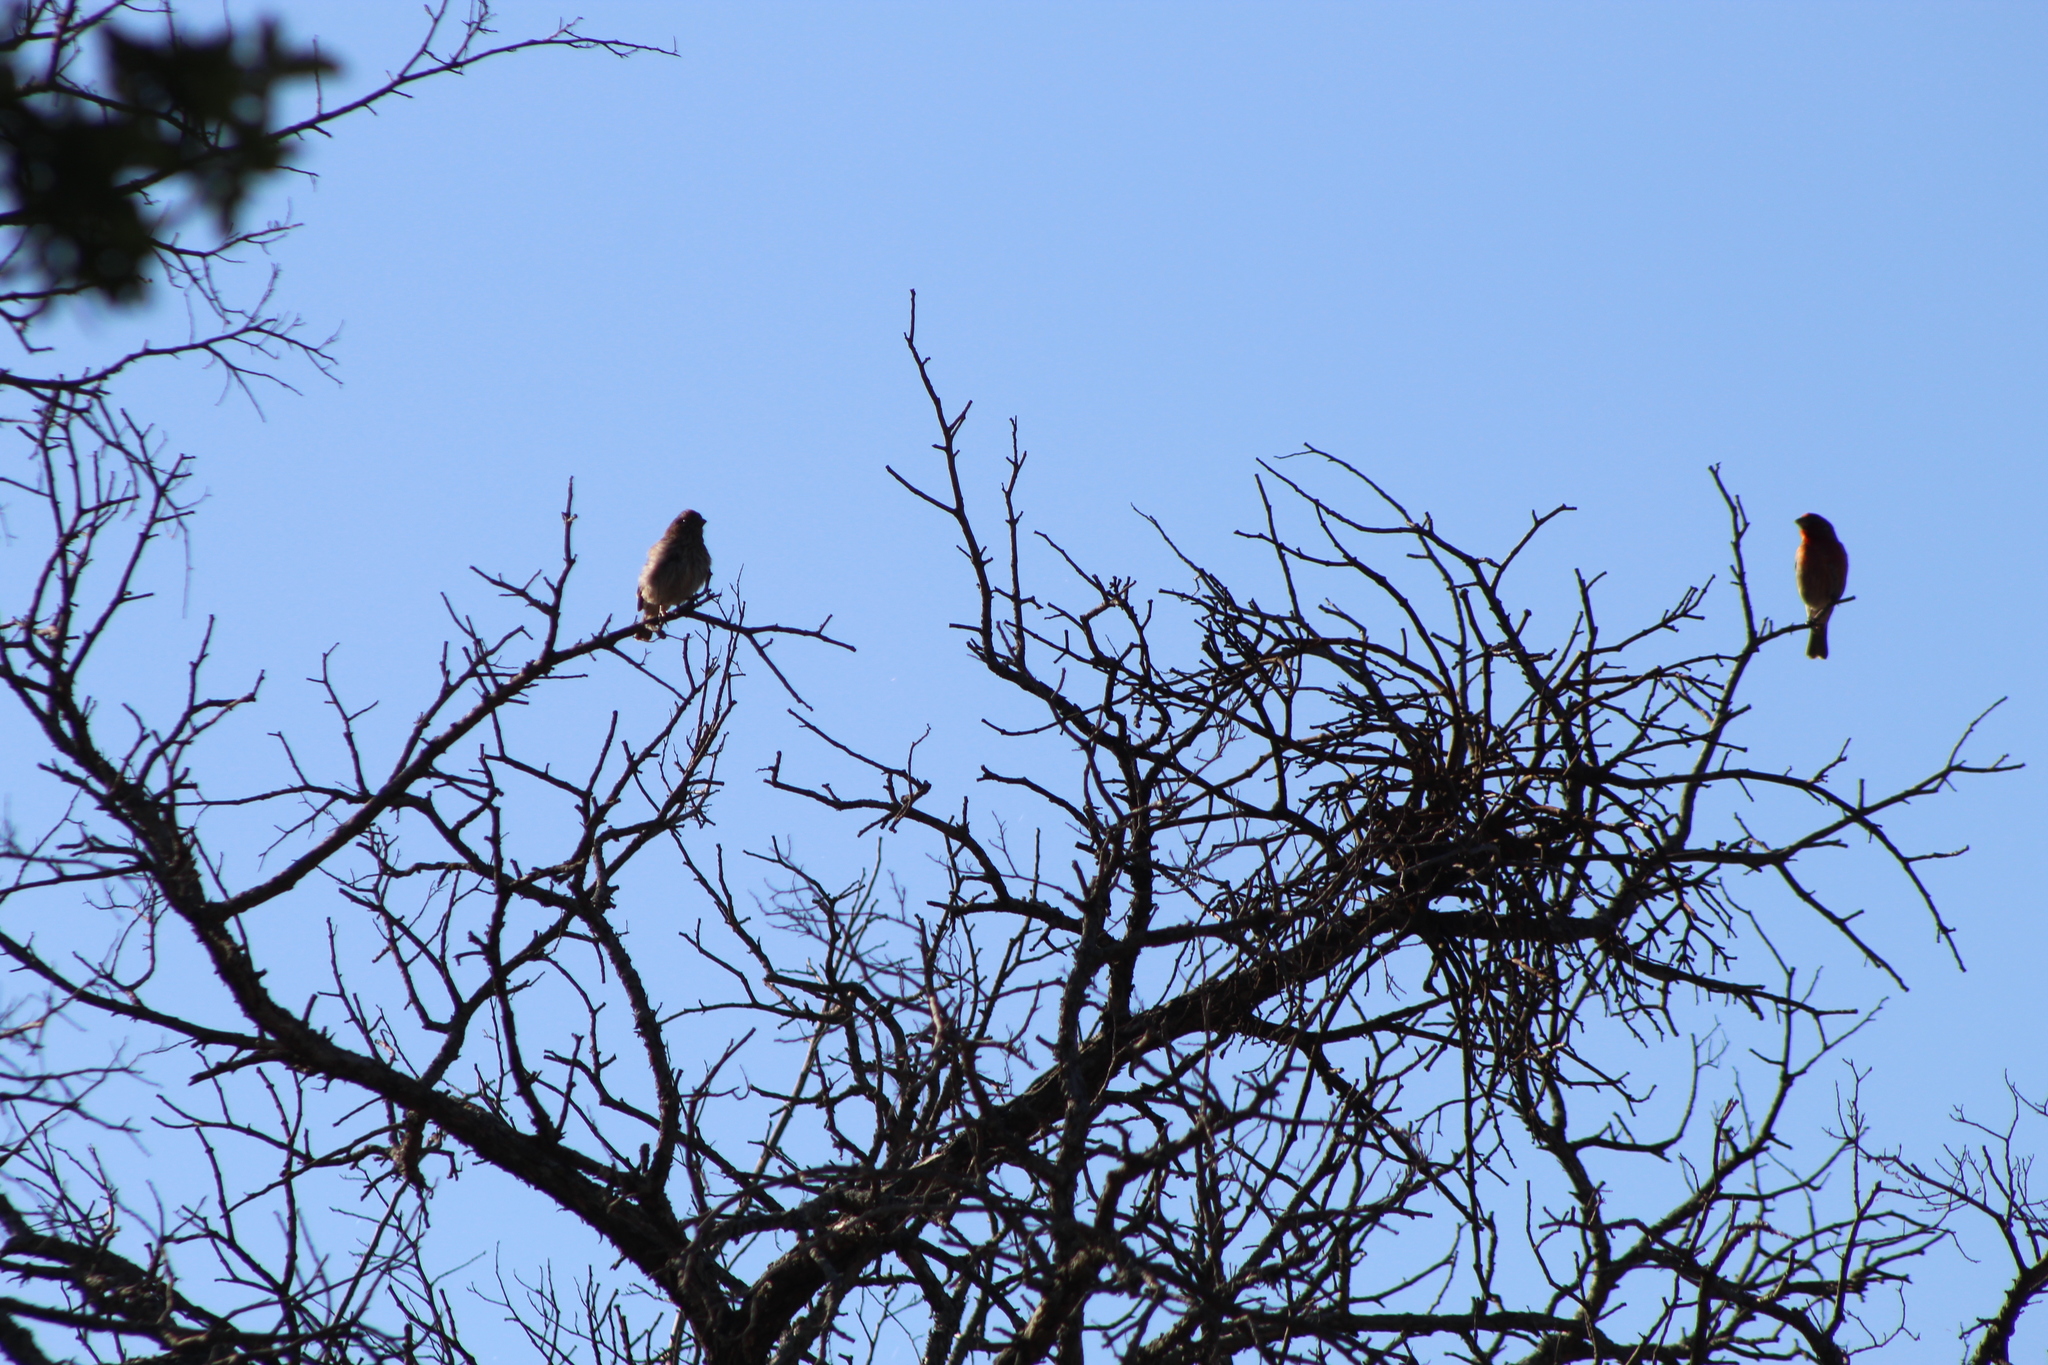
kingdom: Animalia
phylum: Chordata
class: Aves
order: Passeriformes
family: Fringillidae
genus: Haemorhous
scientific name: Haemorhous mexicanus
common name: House finch
